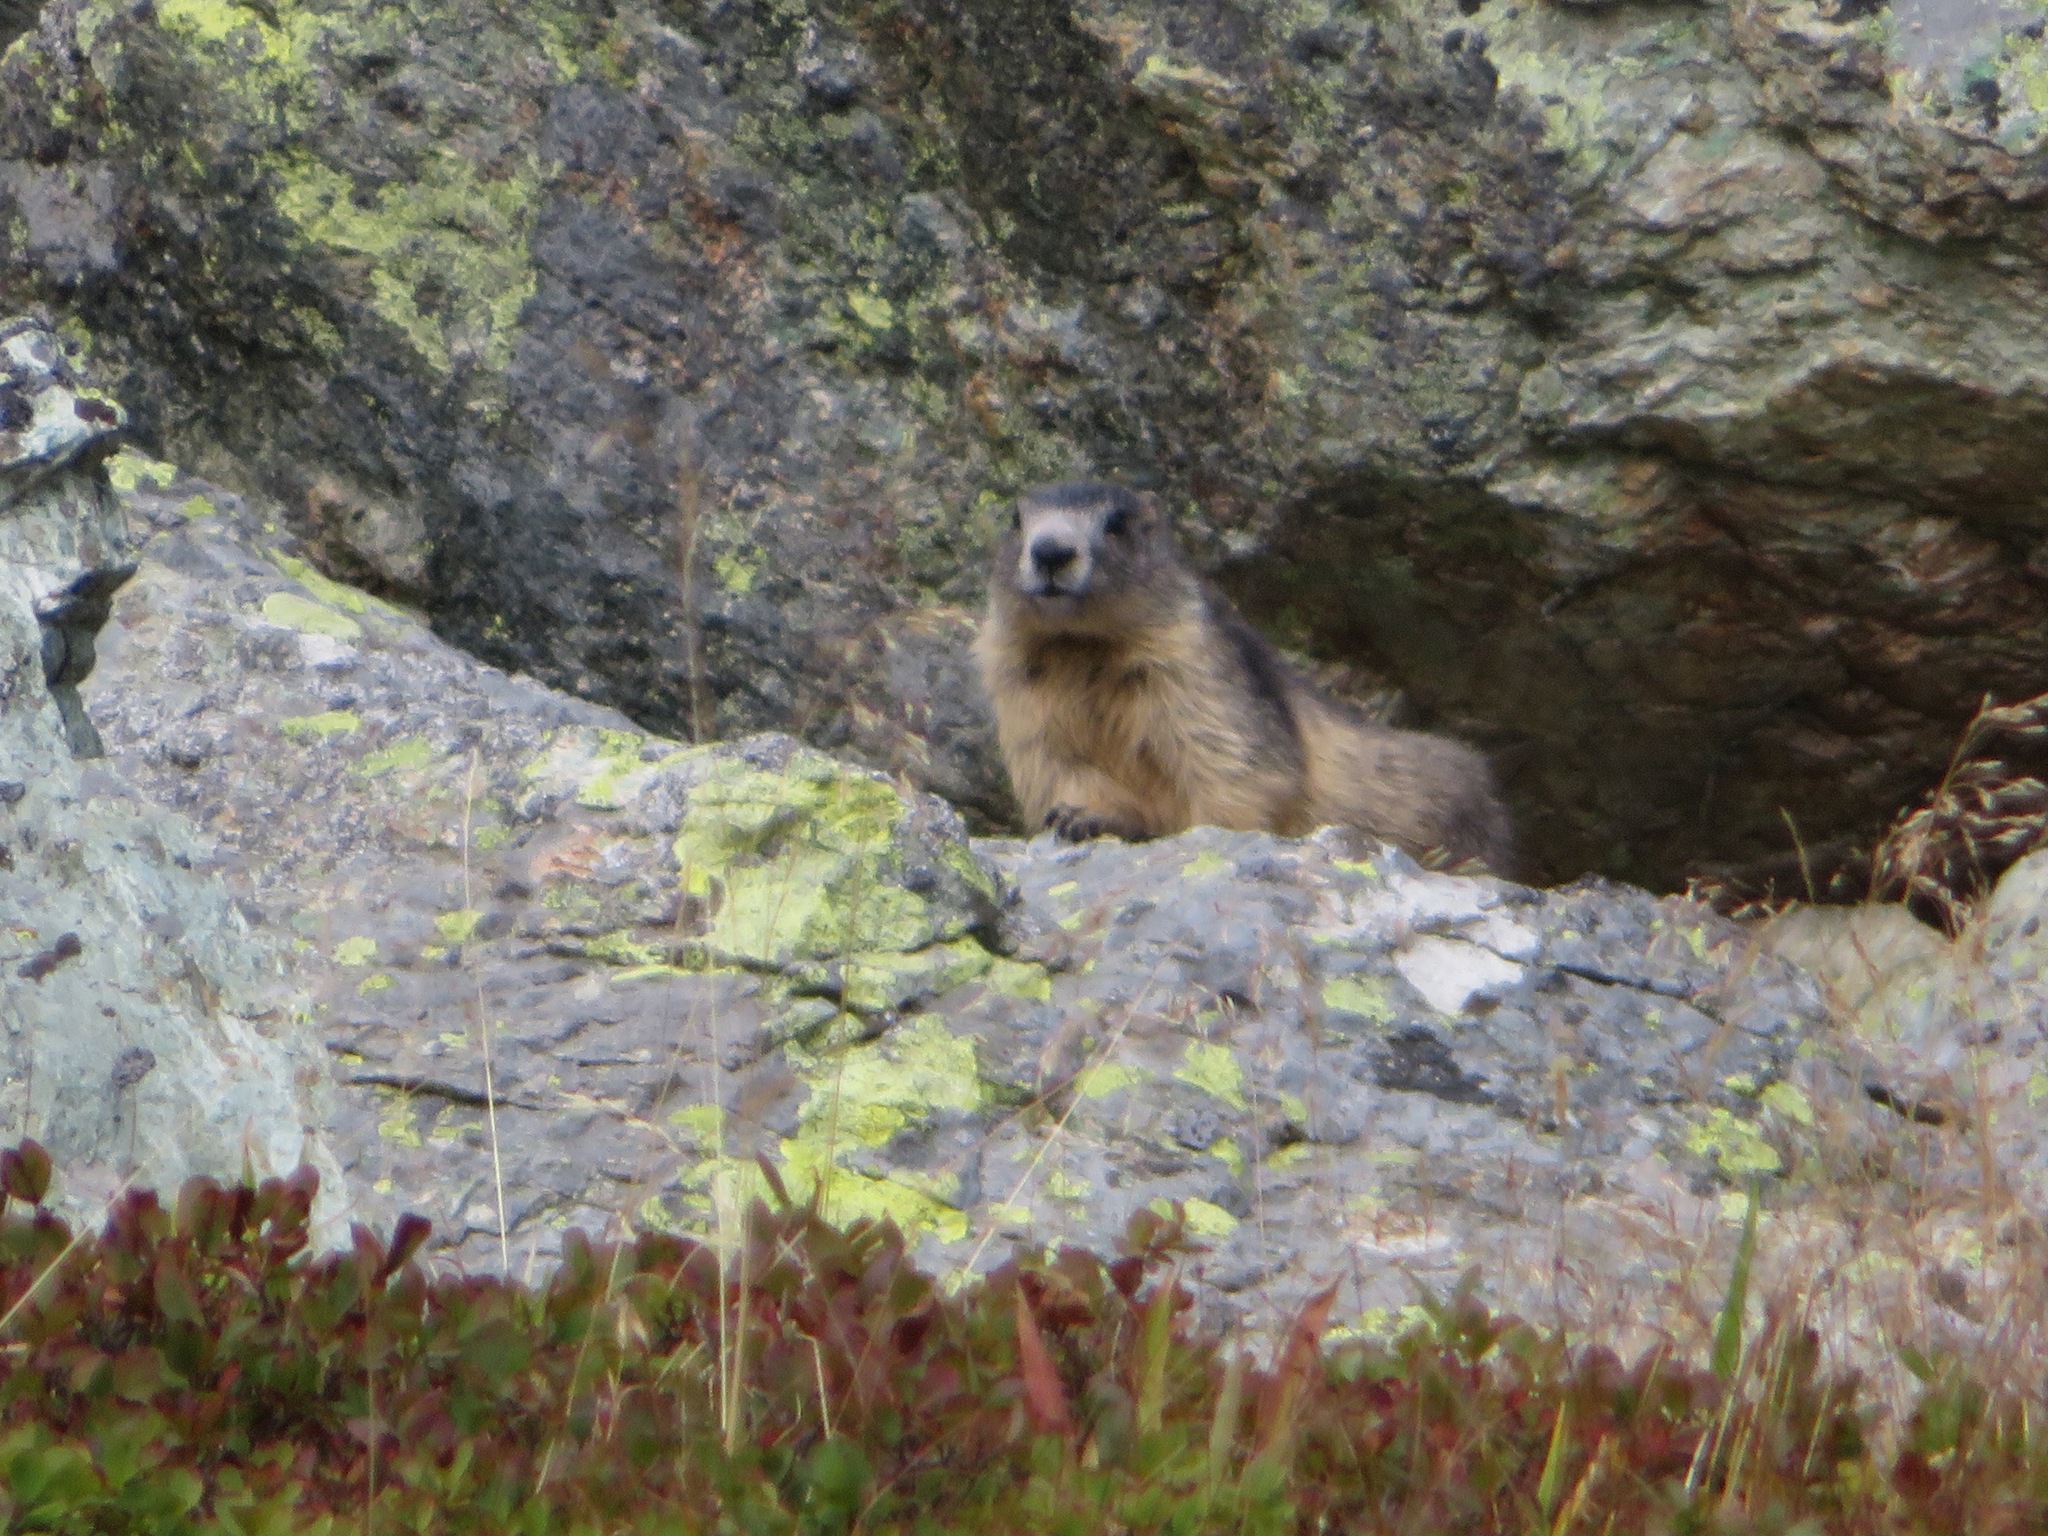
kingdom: Animalia
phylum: Chordata
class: Mammalia
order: Rodentia
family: Sciuridae
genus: Marmota
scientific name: Marmota marmota
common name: Alpine marmot
